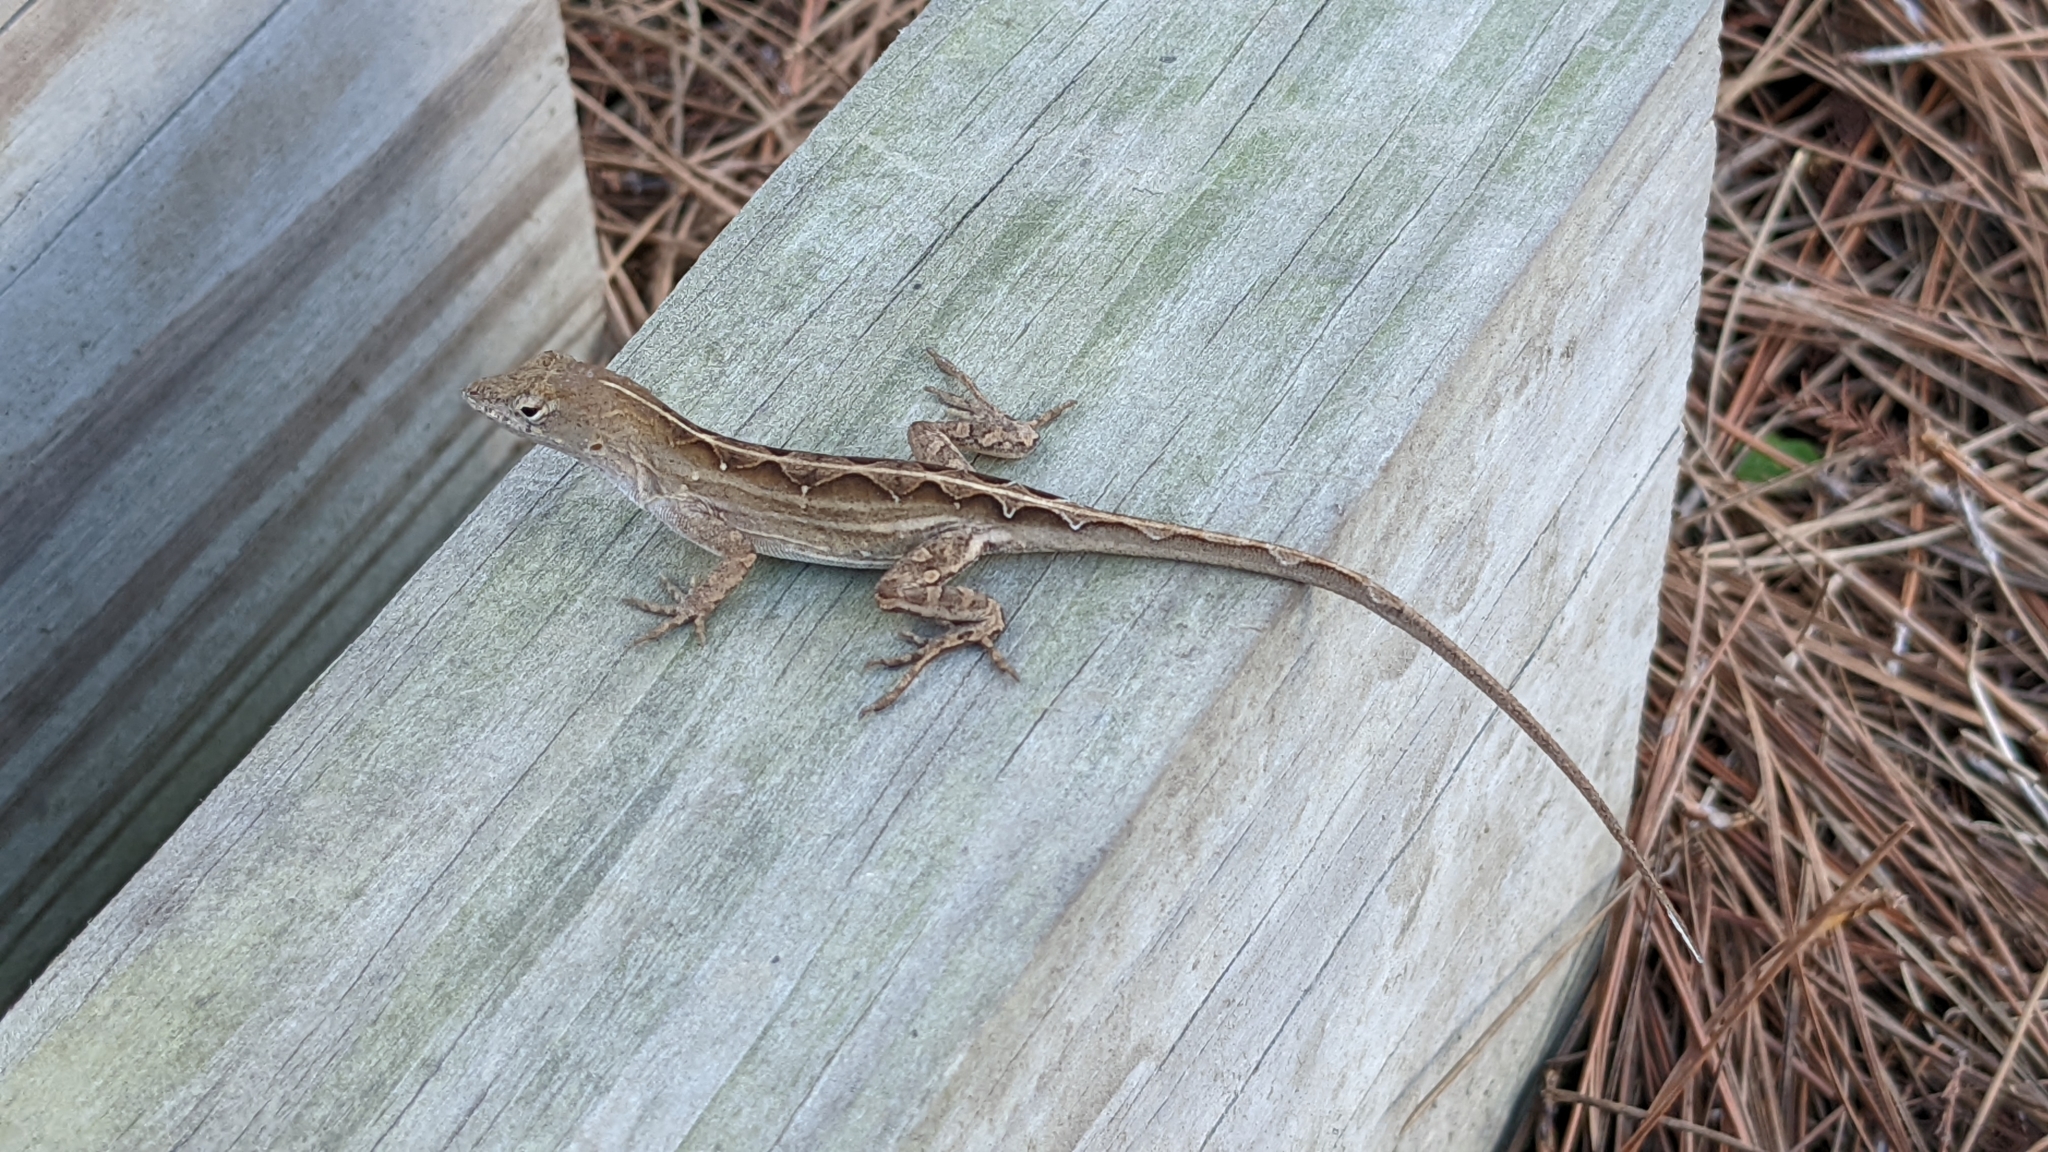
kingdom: Animalia
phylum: Chordata
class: Squamata
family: Dactyloidae
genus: Anolis
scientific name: Anolis sagrei
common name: Brown anole
